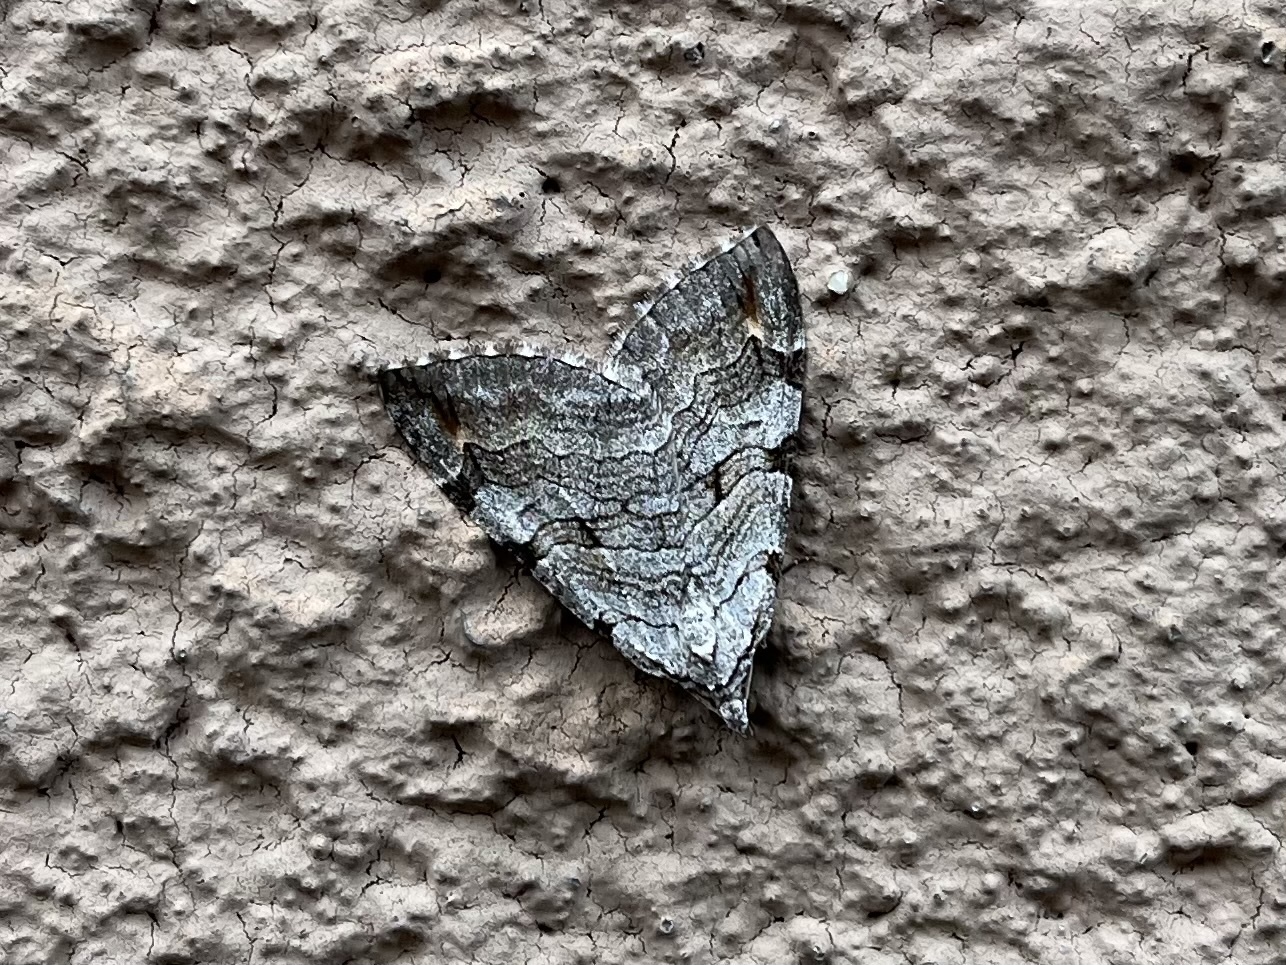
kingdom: Animalia
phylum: Arthropoda
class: Insecta
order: Lepidoptera
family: Geometridae
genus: Aplocera
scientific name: Aplocera plagiata
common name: Treble-bar
